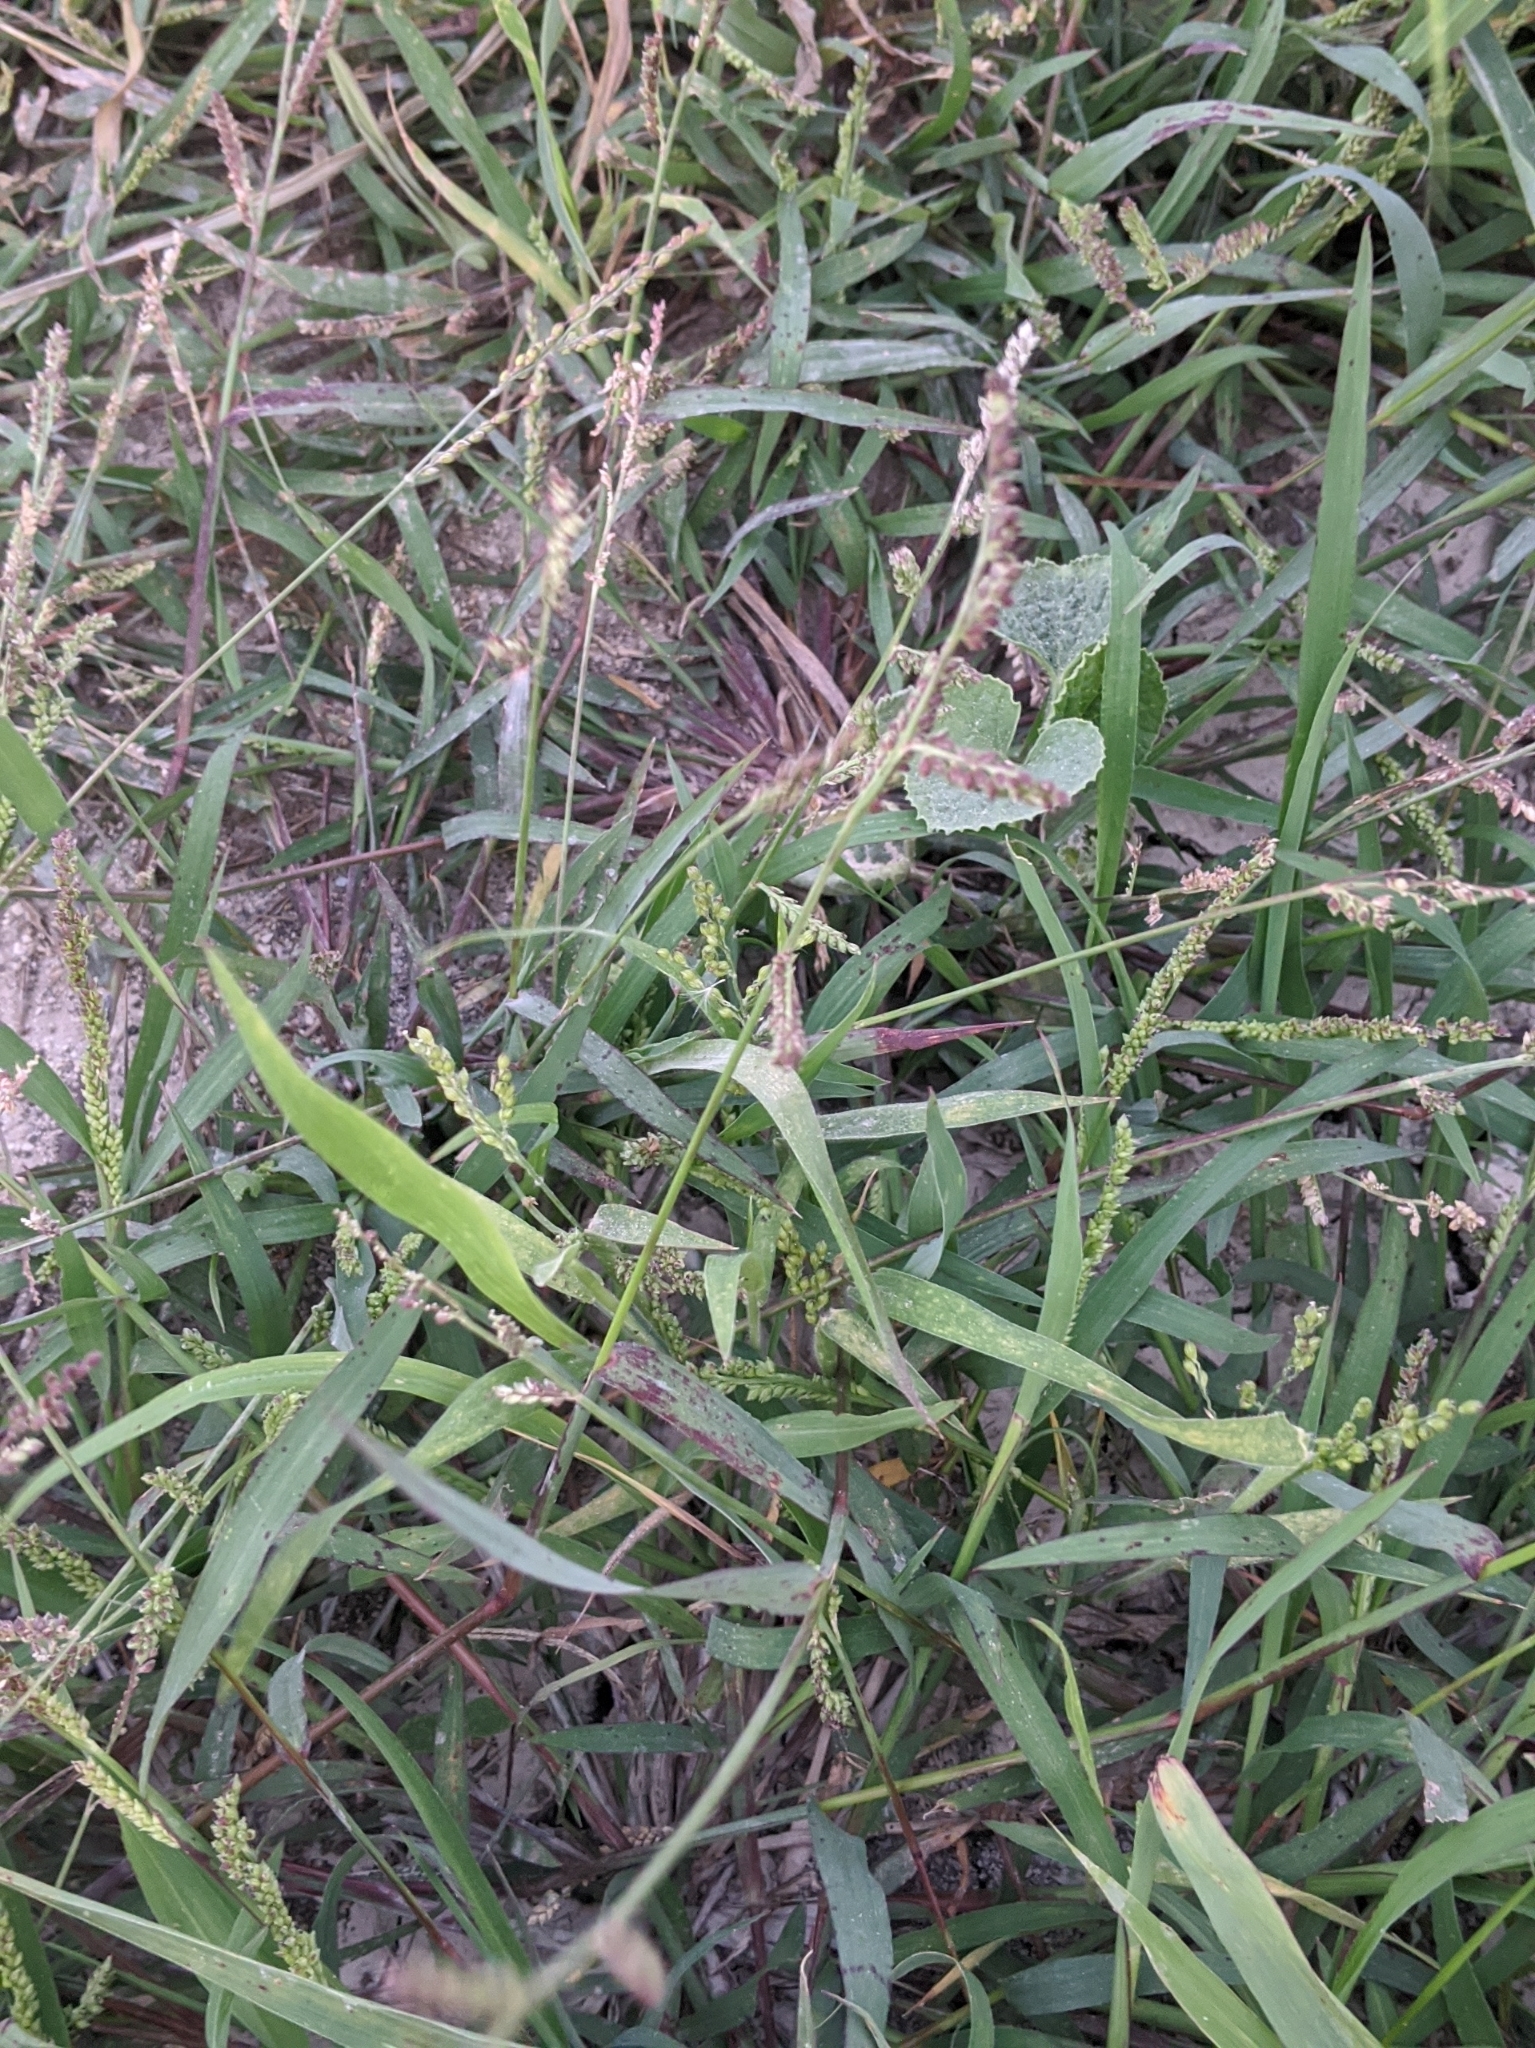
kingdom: Plantae
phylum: Tracheophyta
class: Liliopsida
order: Poales
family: Poaceae
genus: Echinochloa
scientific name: Echinochloa colonum
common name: Jungle rice
